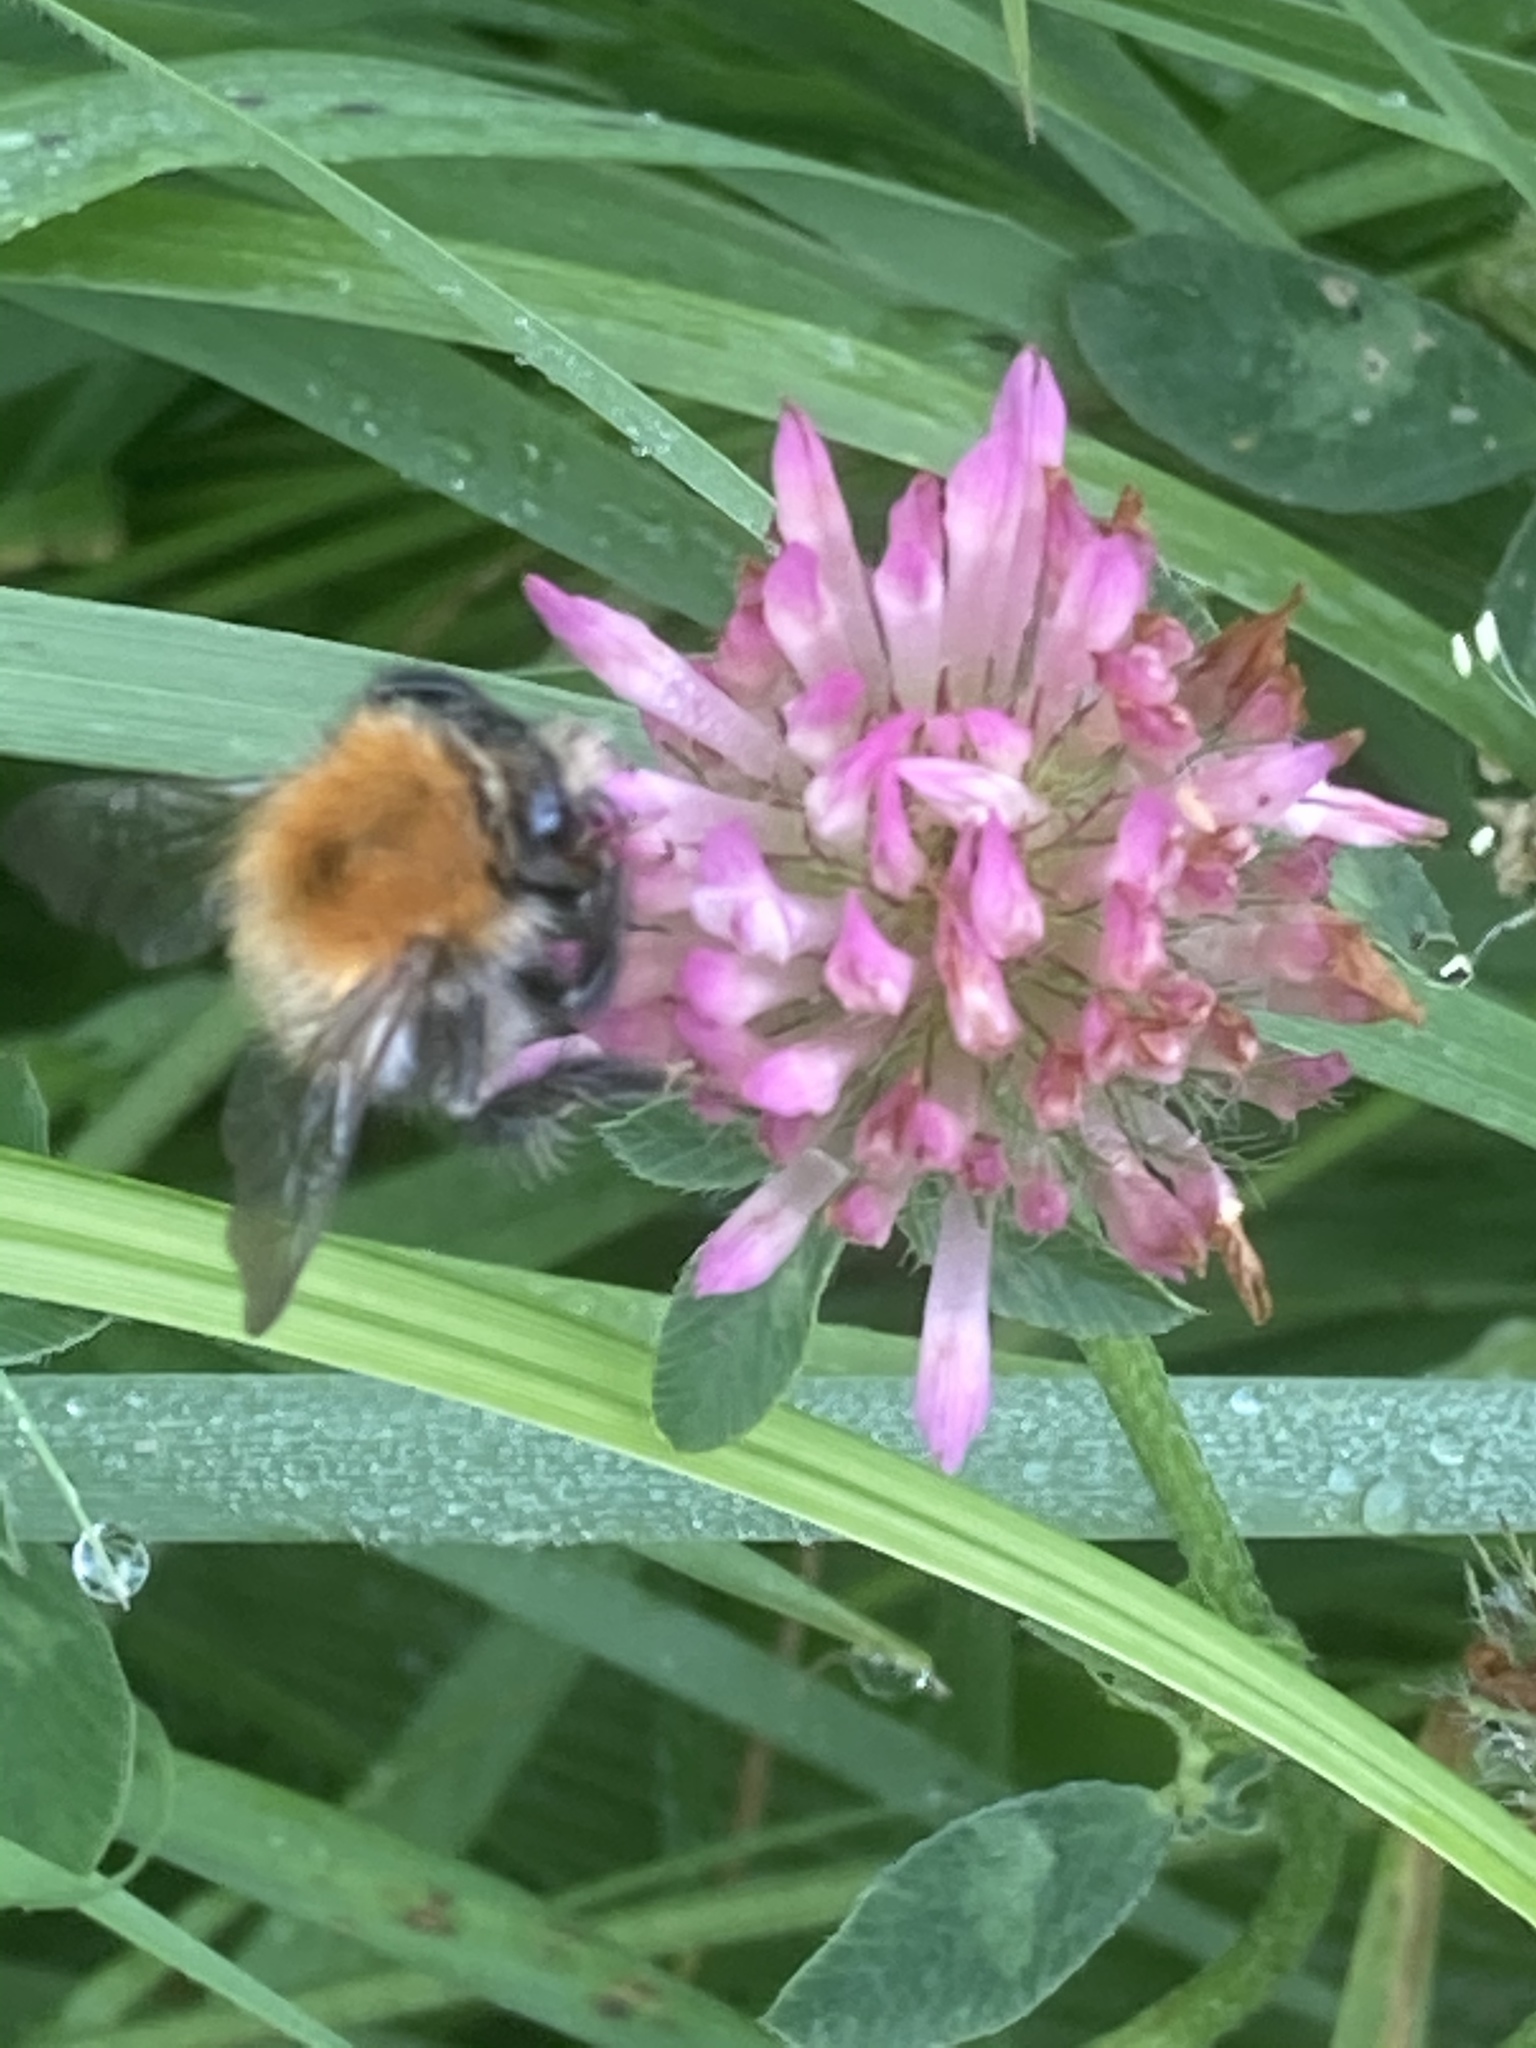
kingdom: Animalia
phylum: Arthropoda
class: Insecta
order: Hymenoptera
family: Apidae
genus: Bombus
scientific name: Bombus pascuorum
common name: Common carder bee
